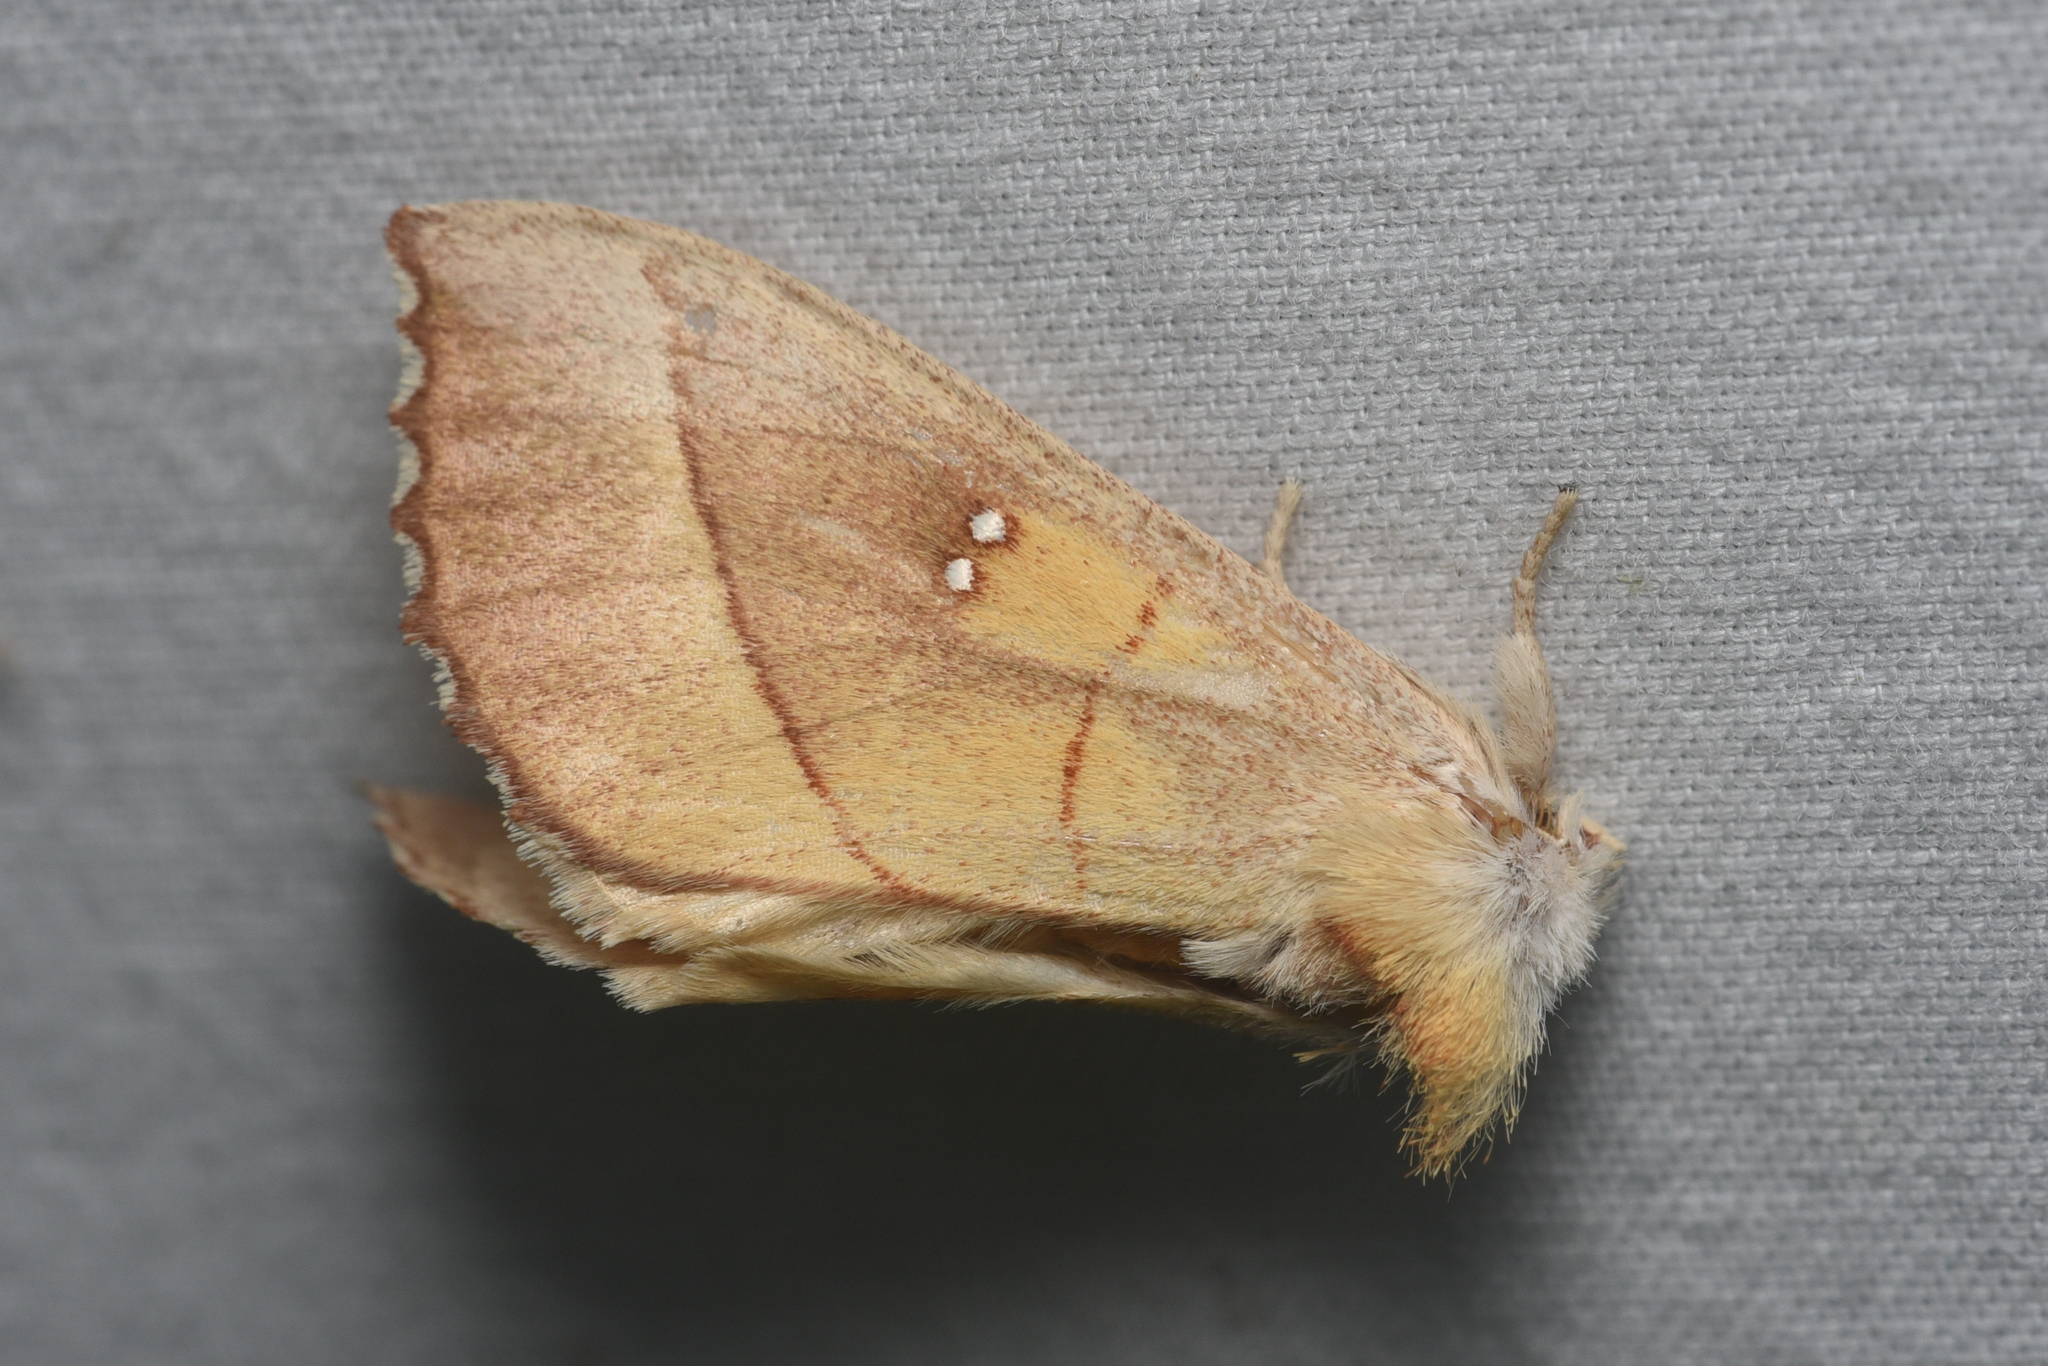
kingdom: Animalia
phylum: Arthropoda
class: Insecta
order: Lepidoptera
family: Notodontidae
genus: Nadata
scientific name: Nadata gibbosa
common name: White-dotted prominent
